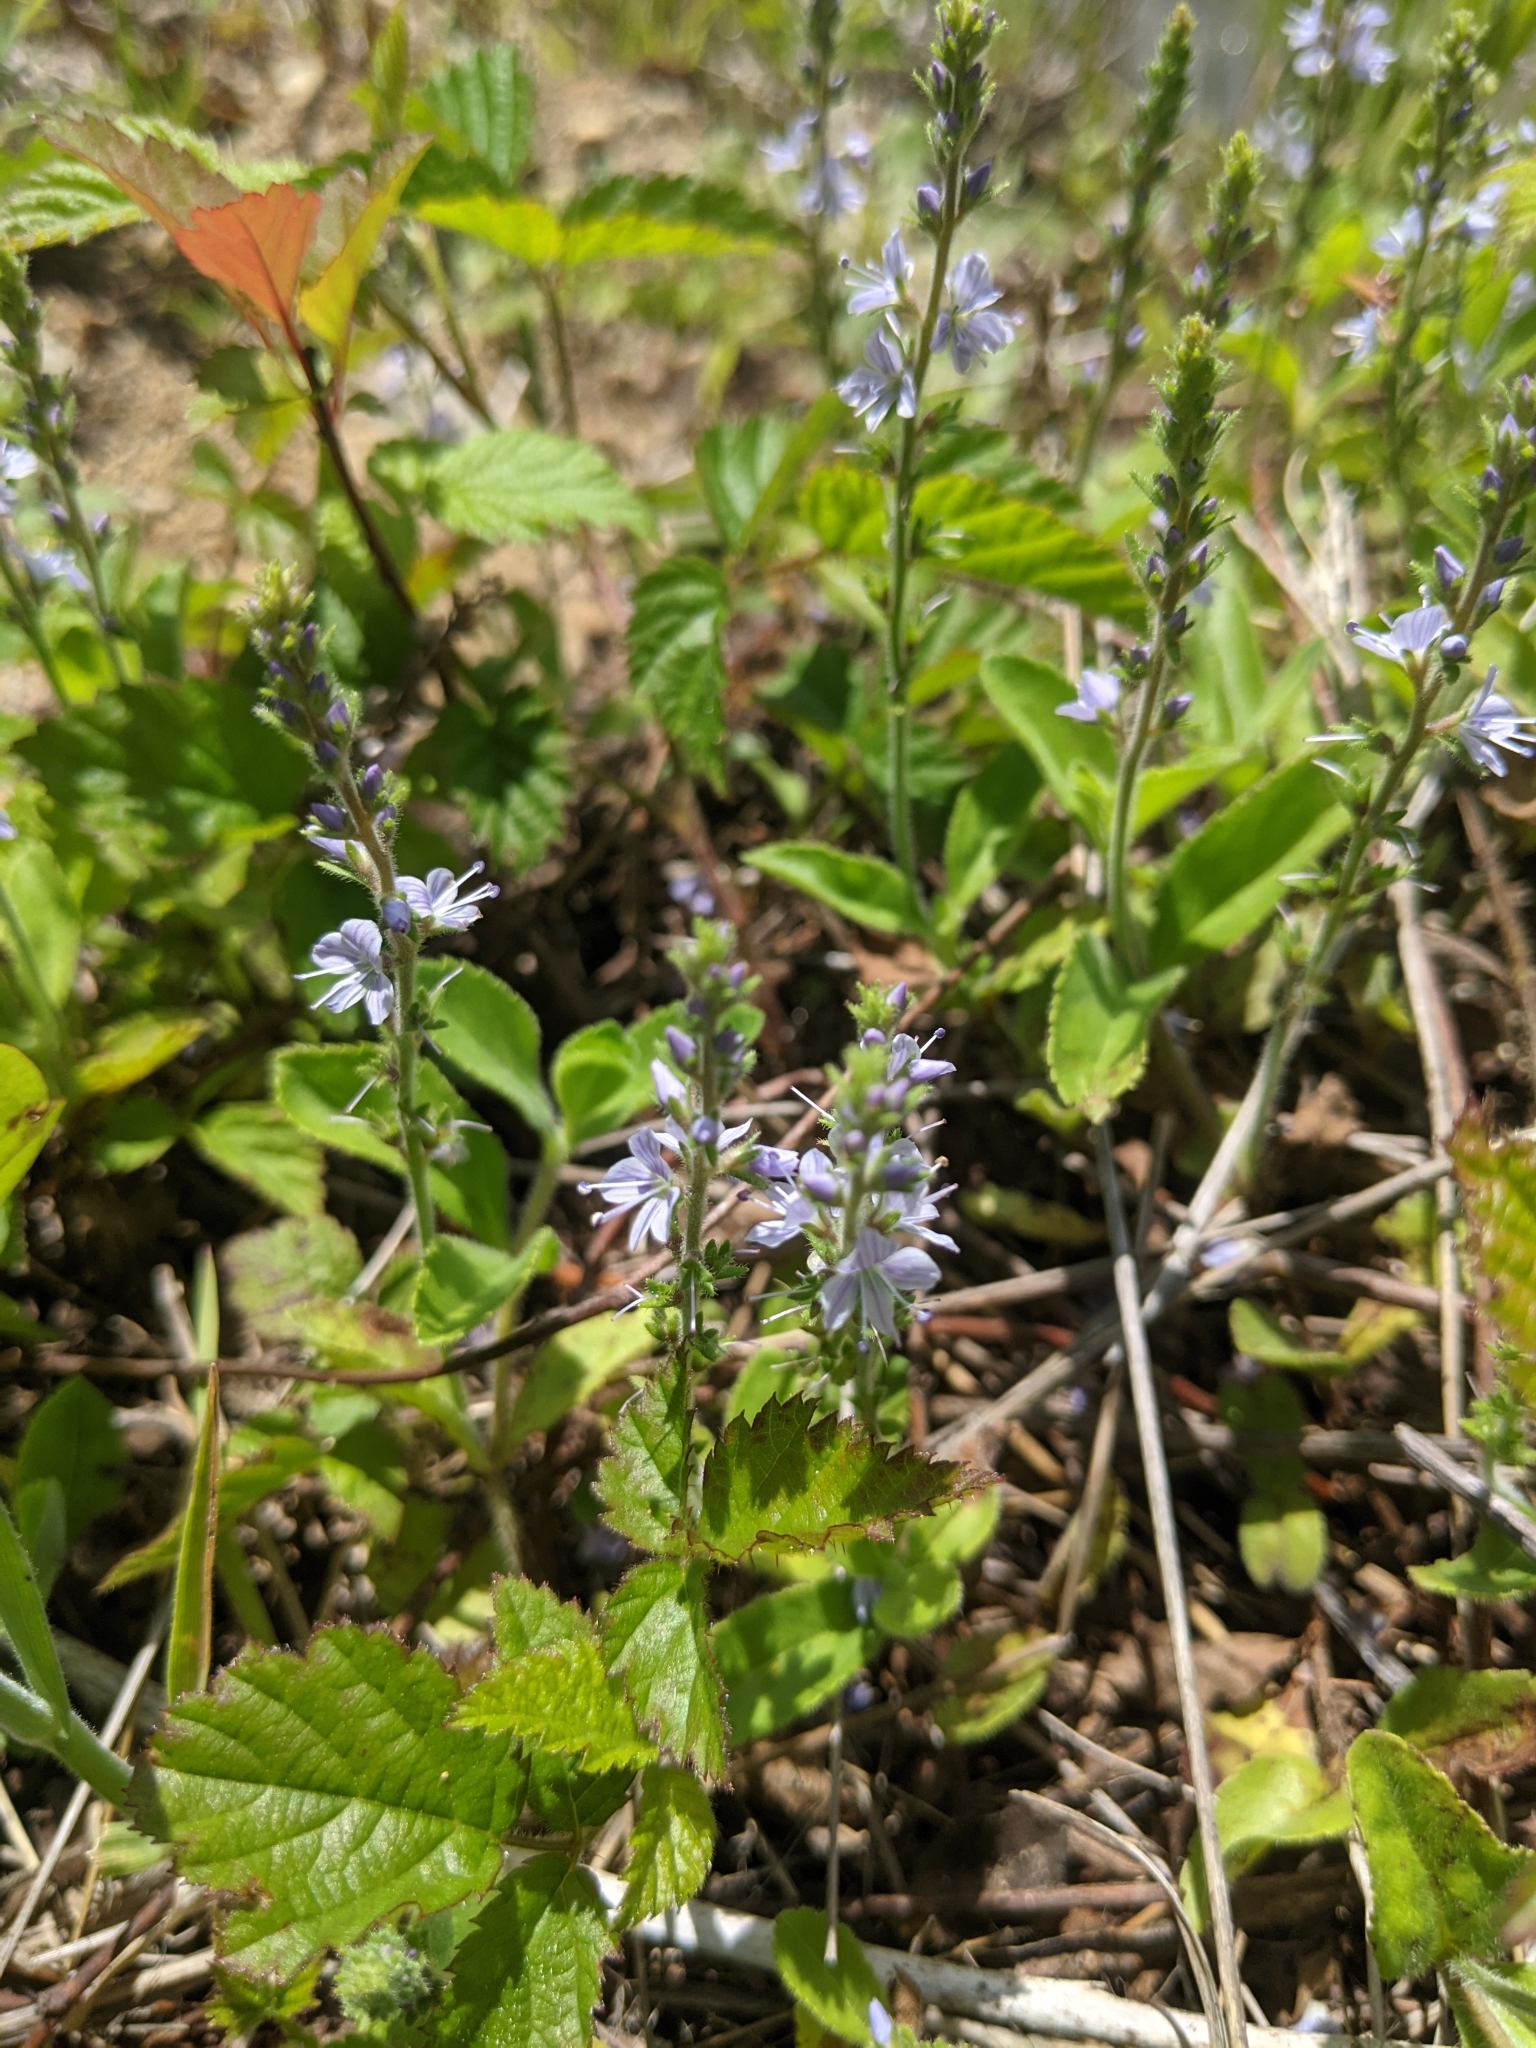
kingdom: Plantae
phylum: Tracheophyta
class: Magnoliopsida
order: Lamiales
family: Plantaginaceae
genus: Veronica
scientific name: Veronica officinalis
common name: Common speedwell
